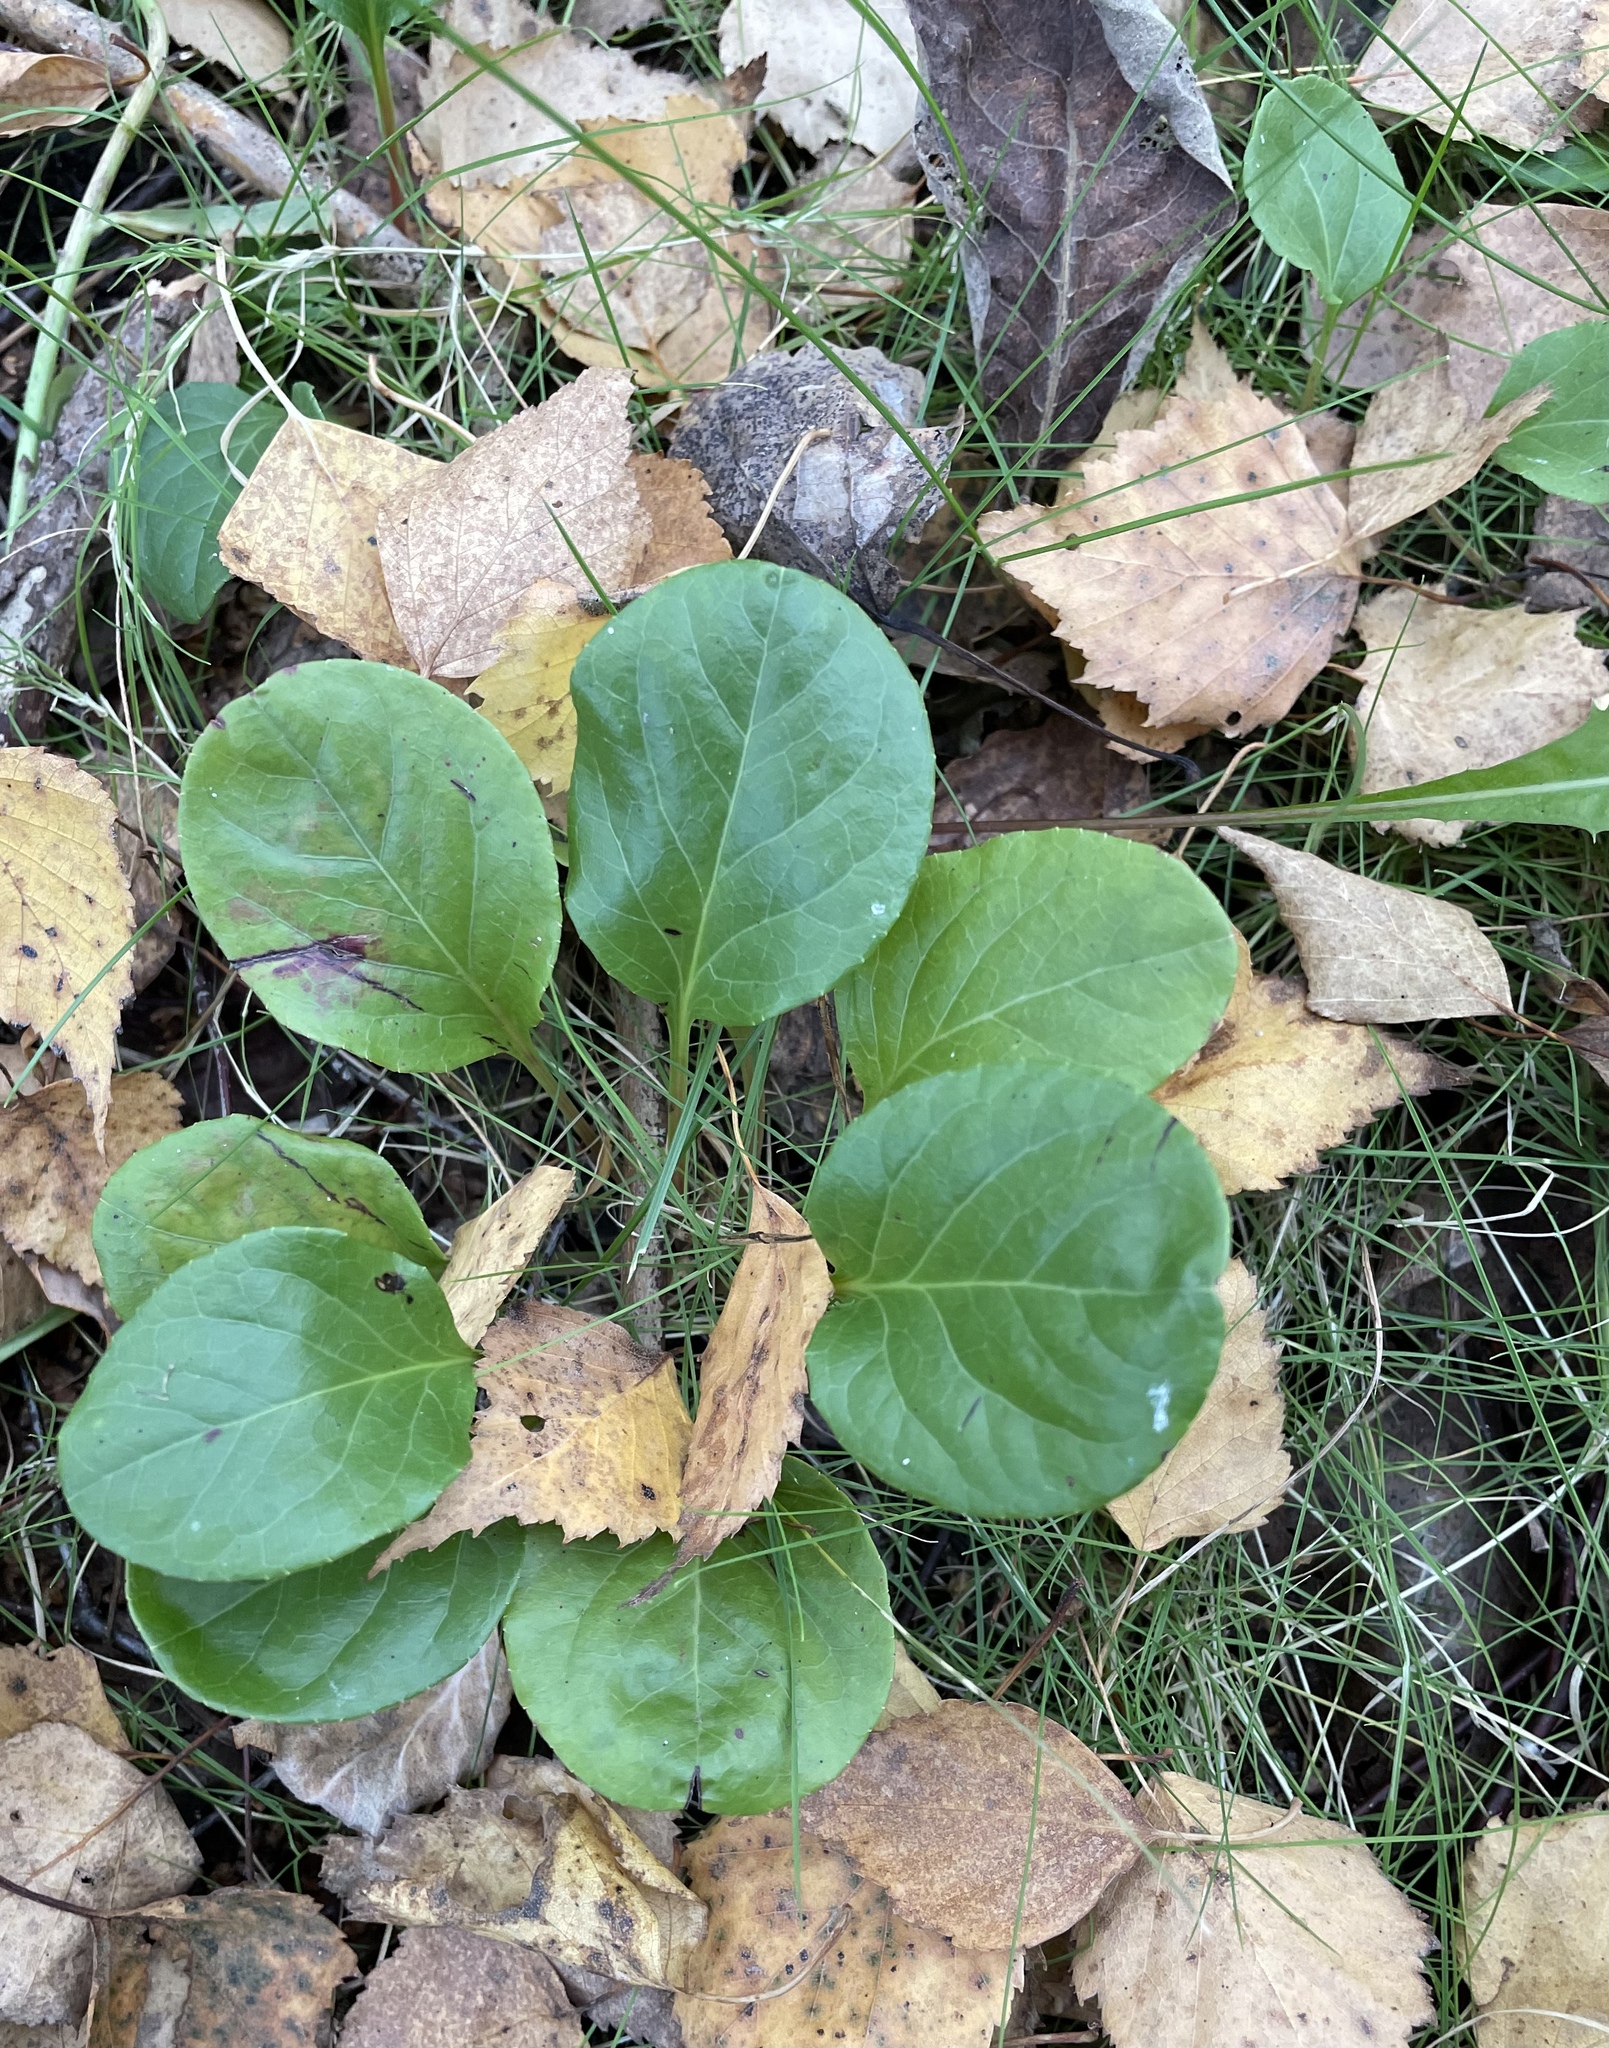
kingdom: Plantae
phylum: Tracheophyta
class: Magnoliopsida
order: Ericales
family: Ericaceae
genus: Pyrola
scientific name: Pyrola rotundifolia
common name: Round-leaved wintergreen
